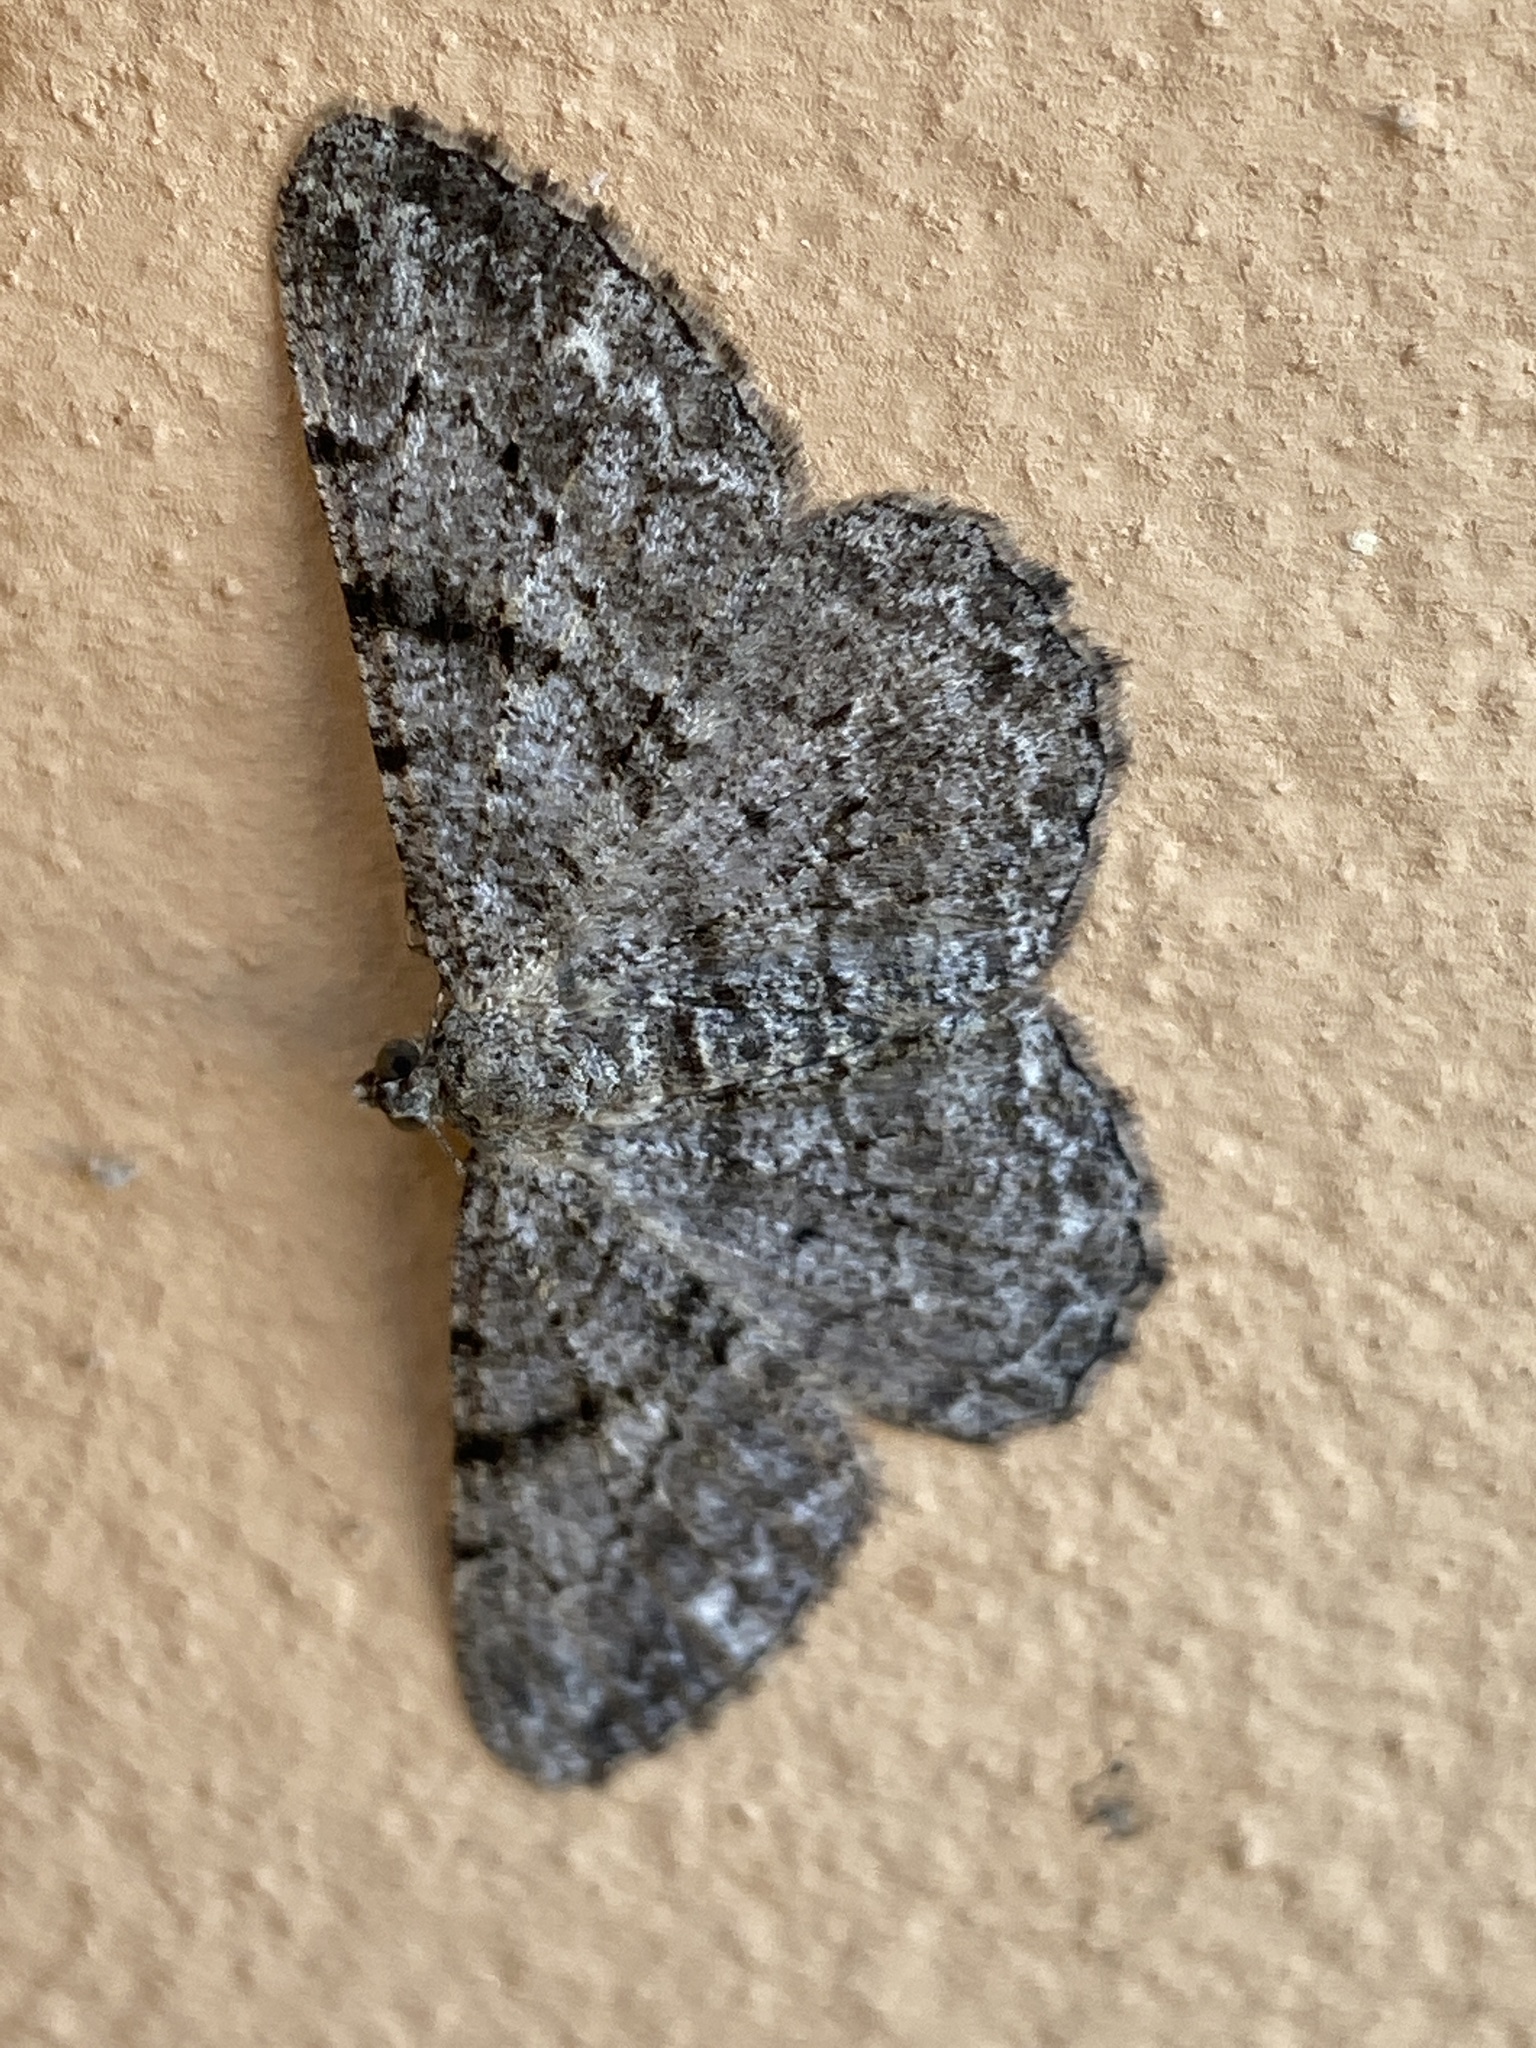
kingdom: Animalia
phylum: Arthropoda
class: Insecta
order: Lepidoptera
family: Geometridae
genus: Peribatodes
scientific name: Peribatodes rhomboidaria
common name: Willow beauty
